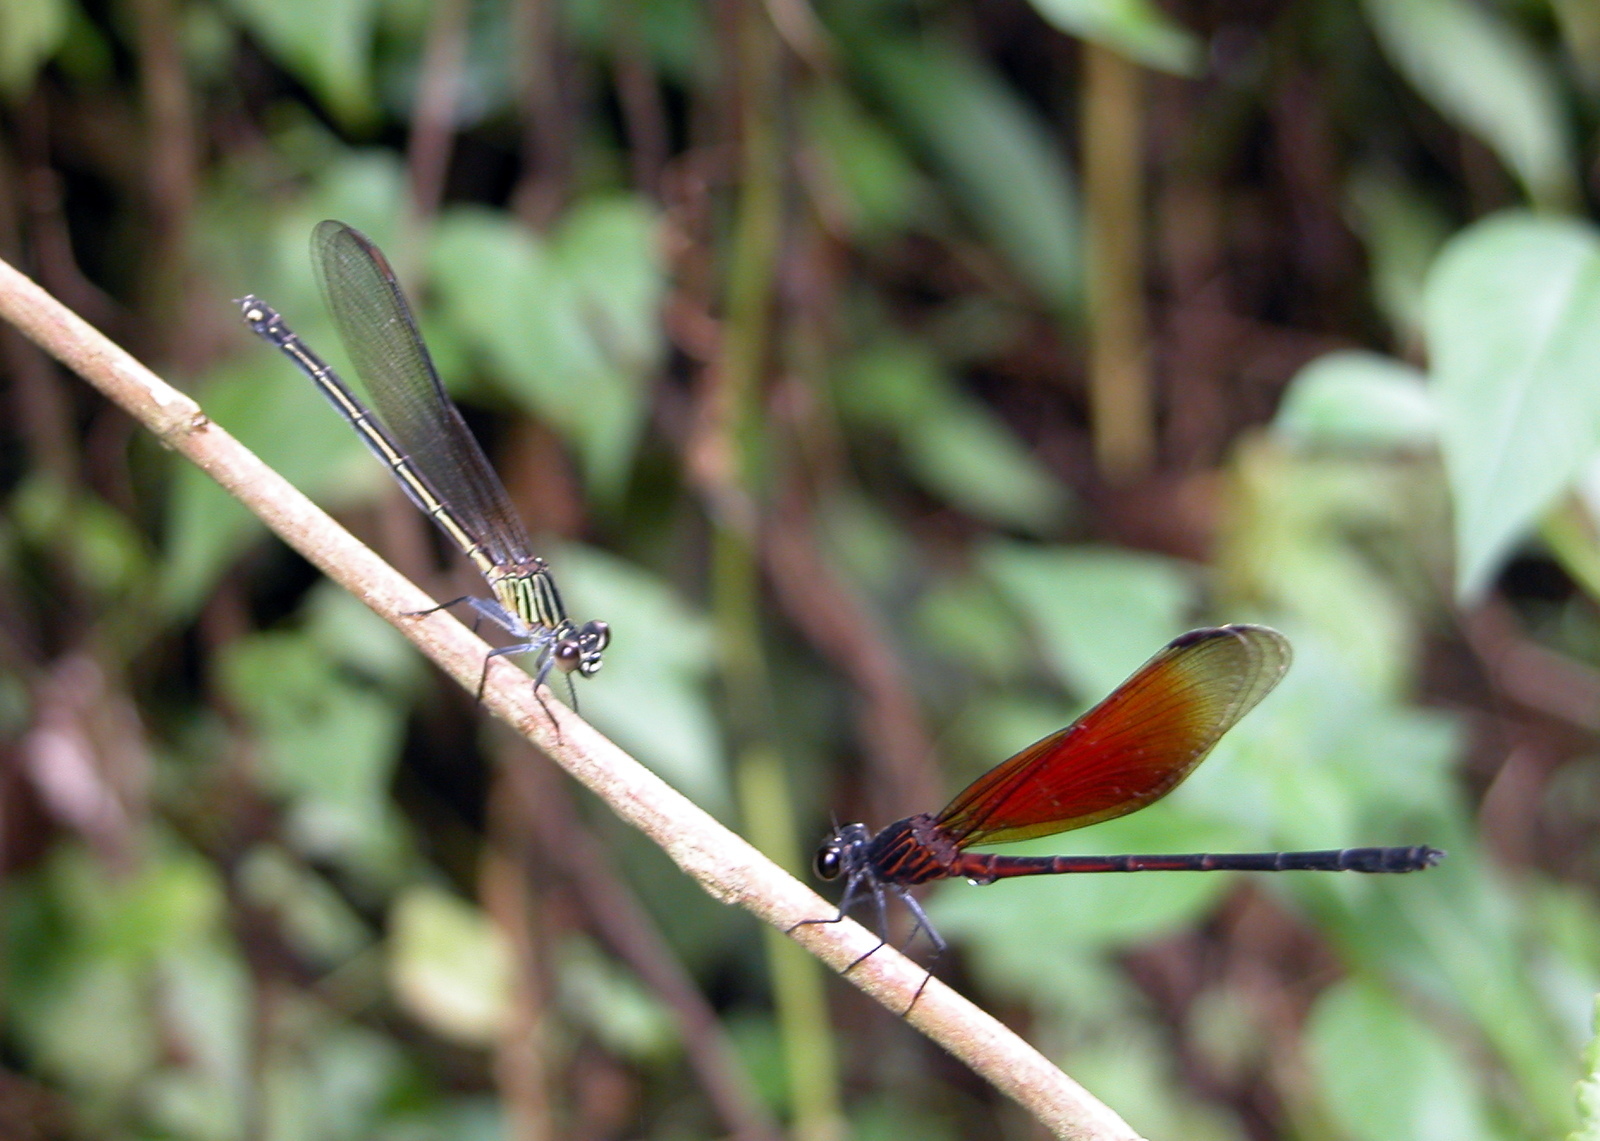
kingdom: Animalia
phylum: Arthropoda
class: Insecta
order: Odonata
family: Euphaeidae
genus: Euphaea
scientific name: Euphaea ochracea
